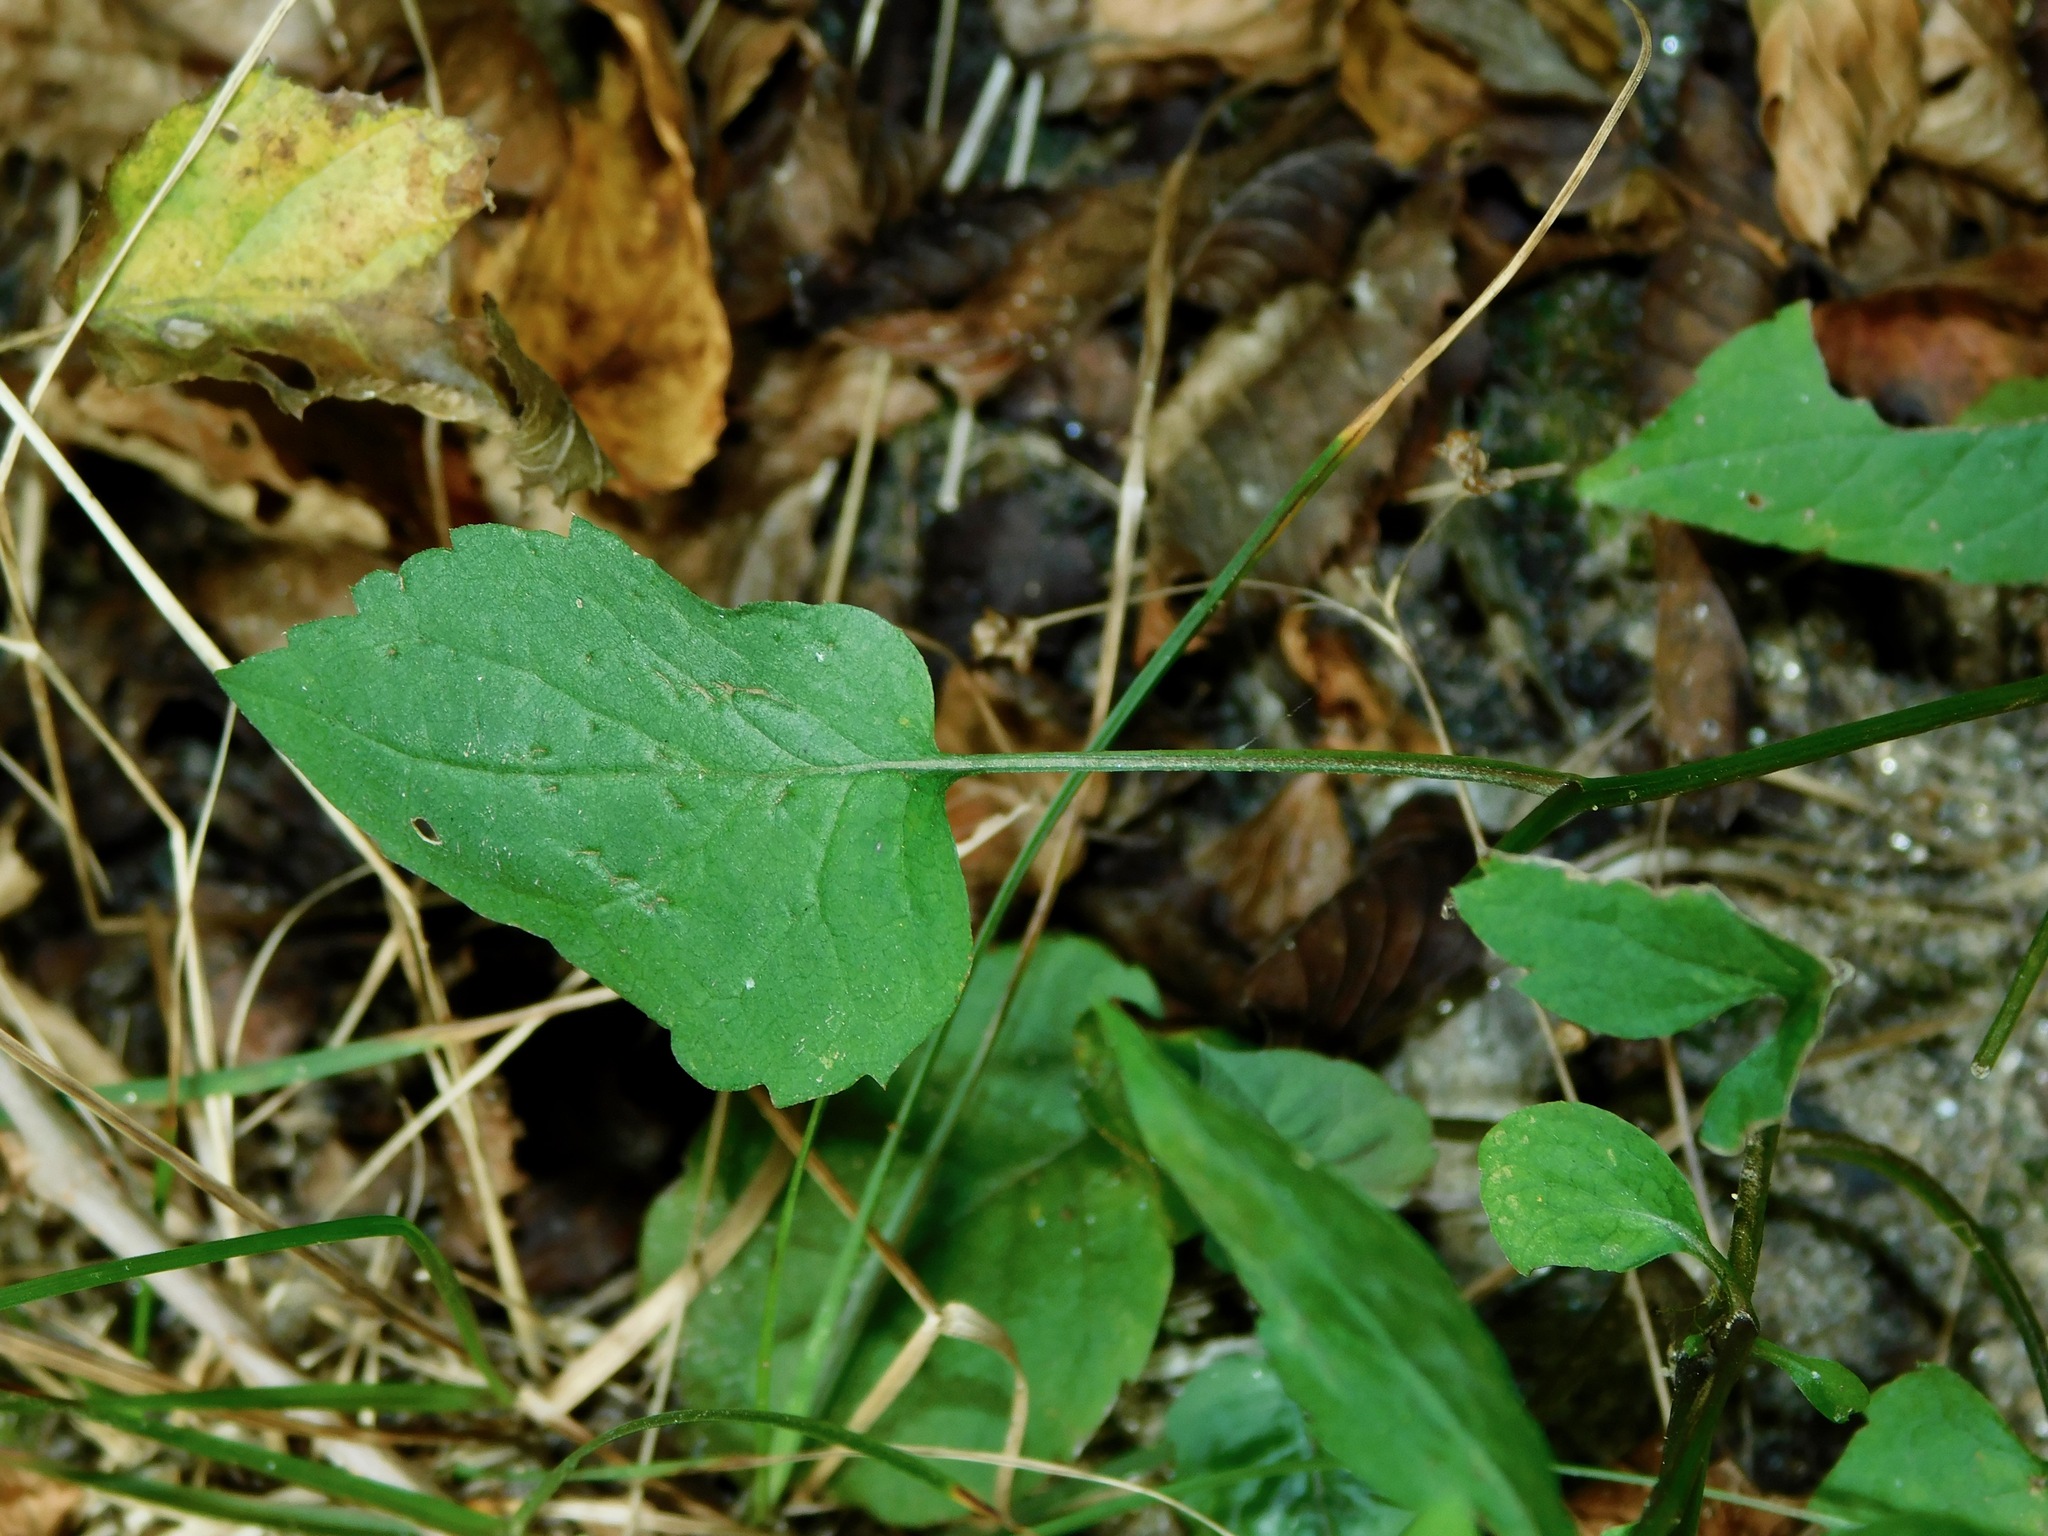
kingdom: Plantae
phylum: Tracheophyta
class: Magnoliopsida
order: Asterales
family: Asteraceae
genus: Eurybia
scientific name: Eurybia divaricata
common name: White wood aster
